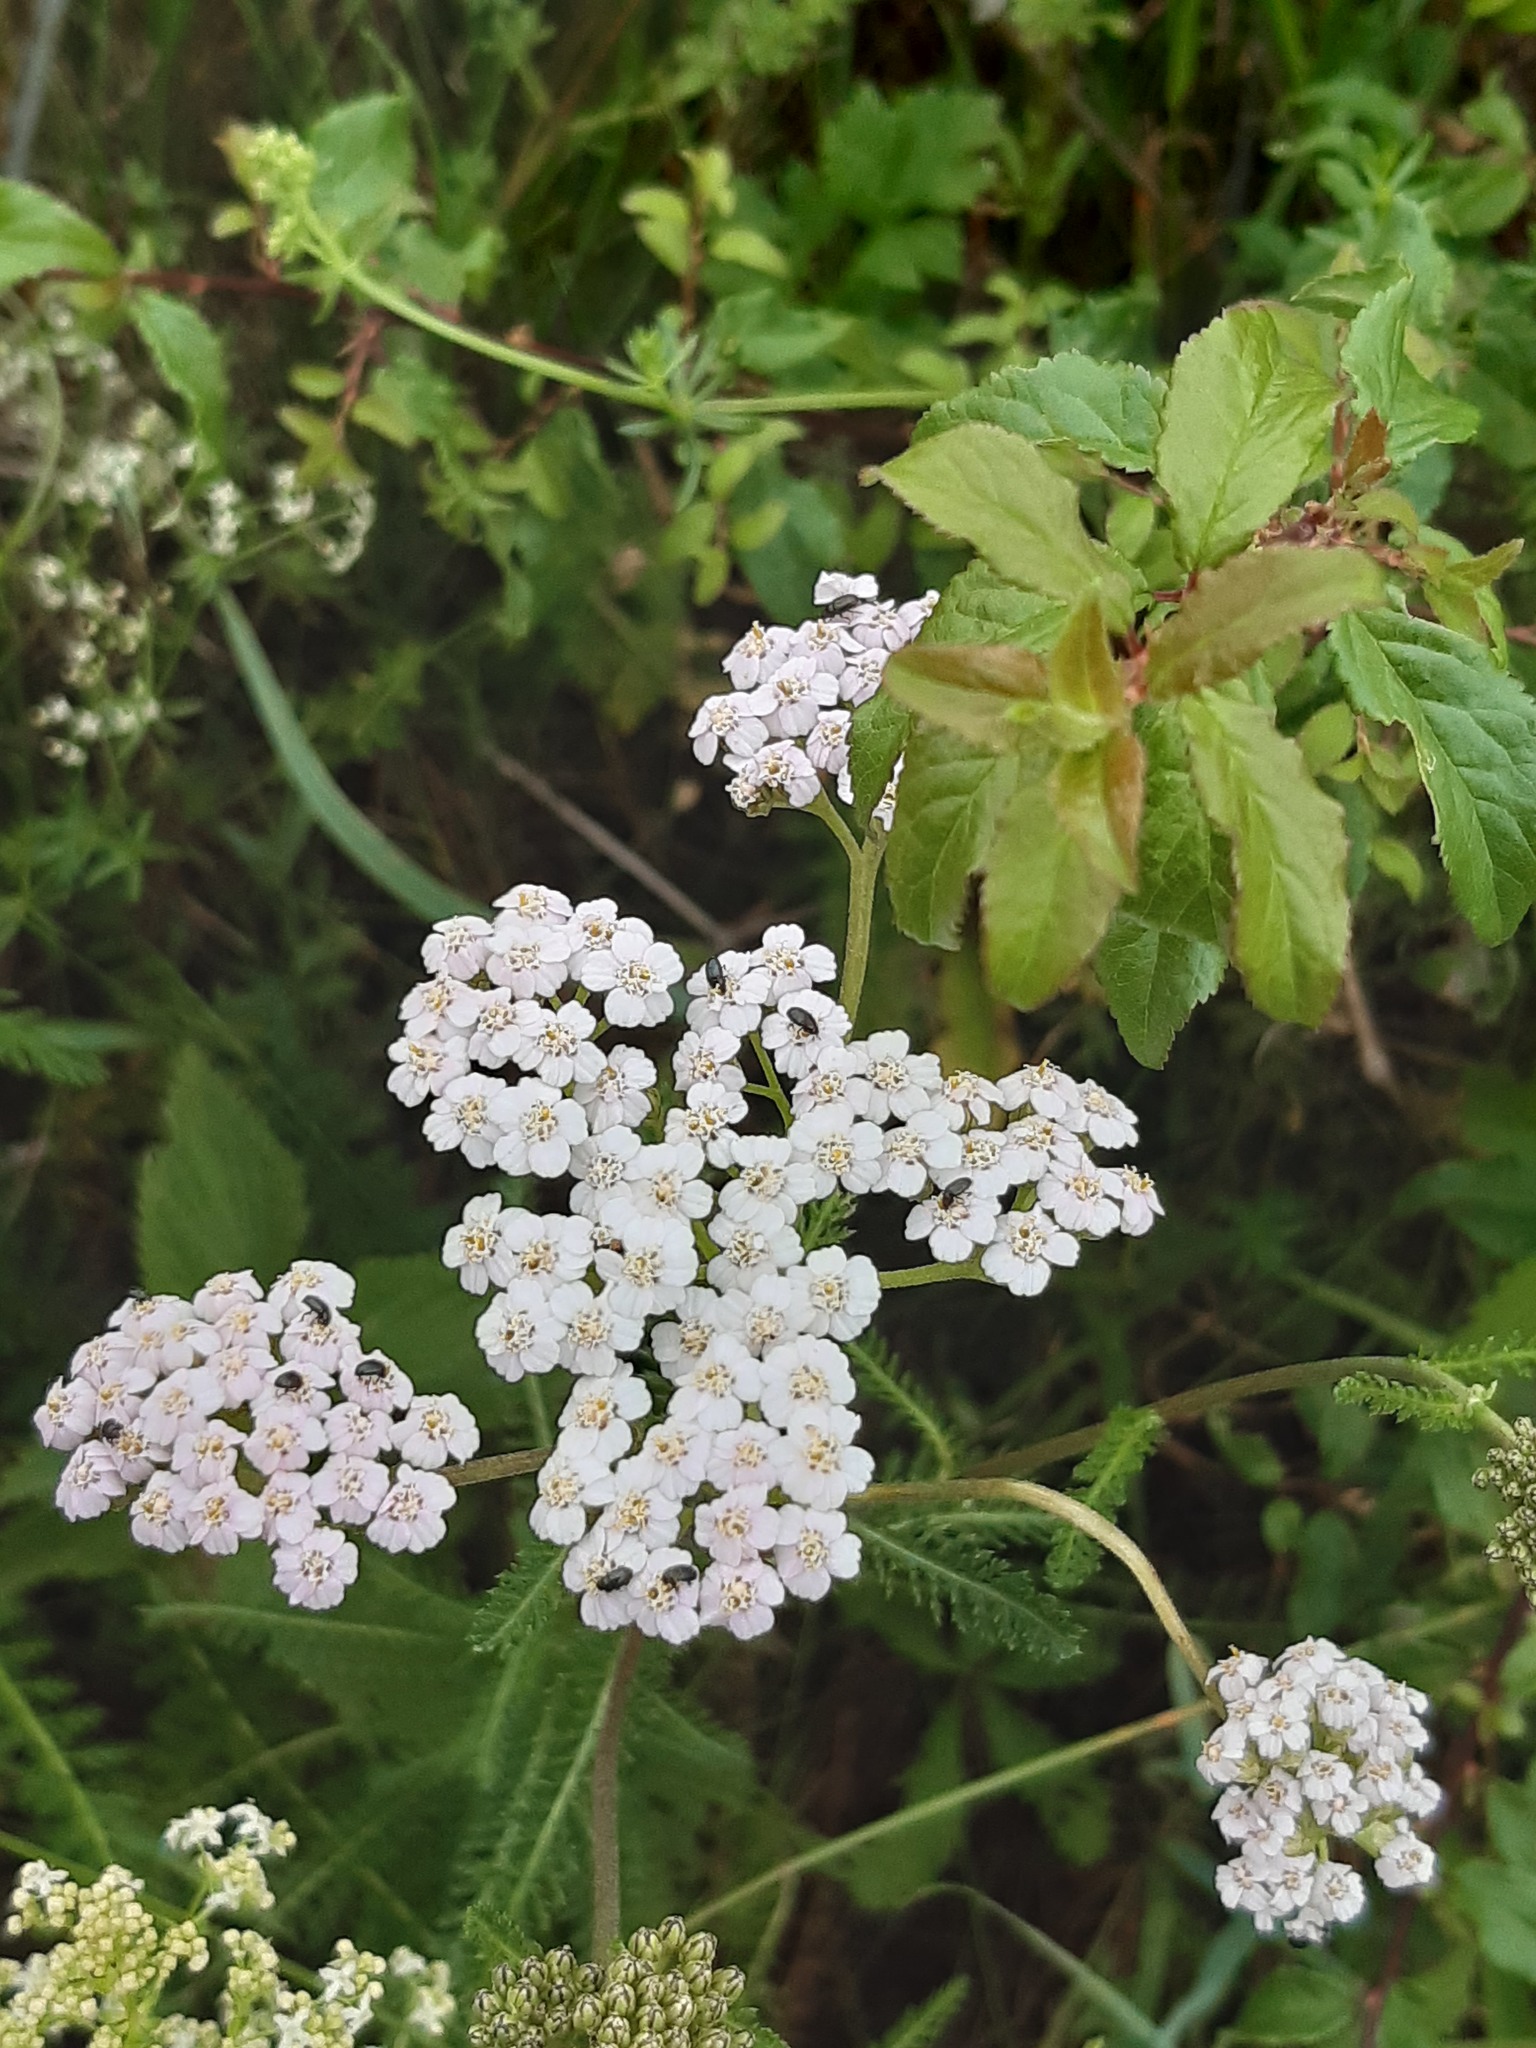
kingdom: Plantae
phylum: Tracheophyta
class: Magnoliopsida
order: Asterales
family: Asteraceae
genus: Achillea
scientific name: Achillea millefolium
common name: Yarrow
